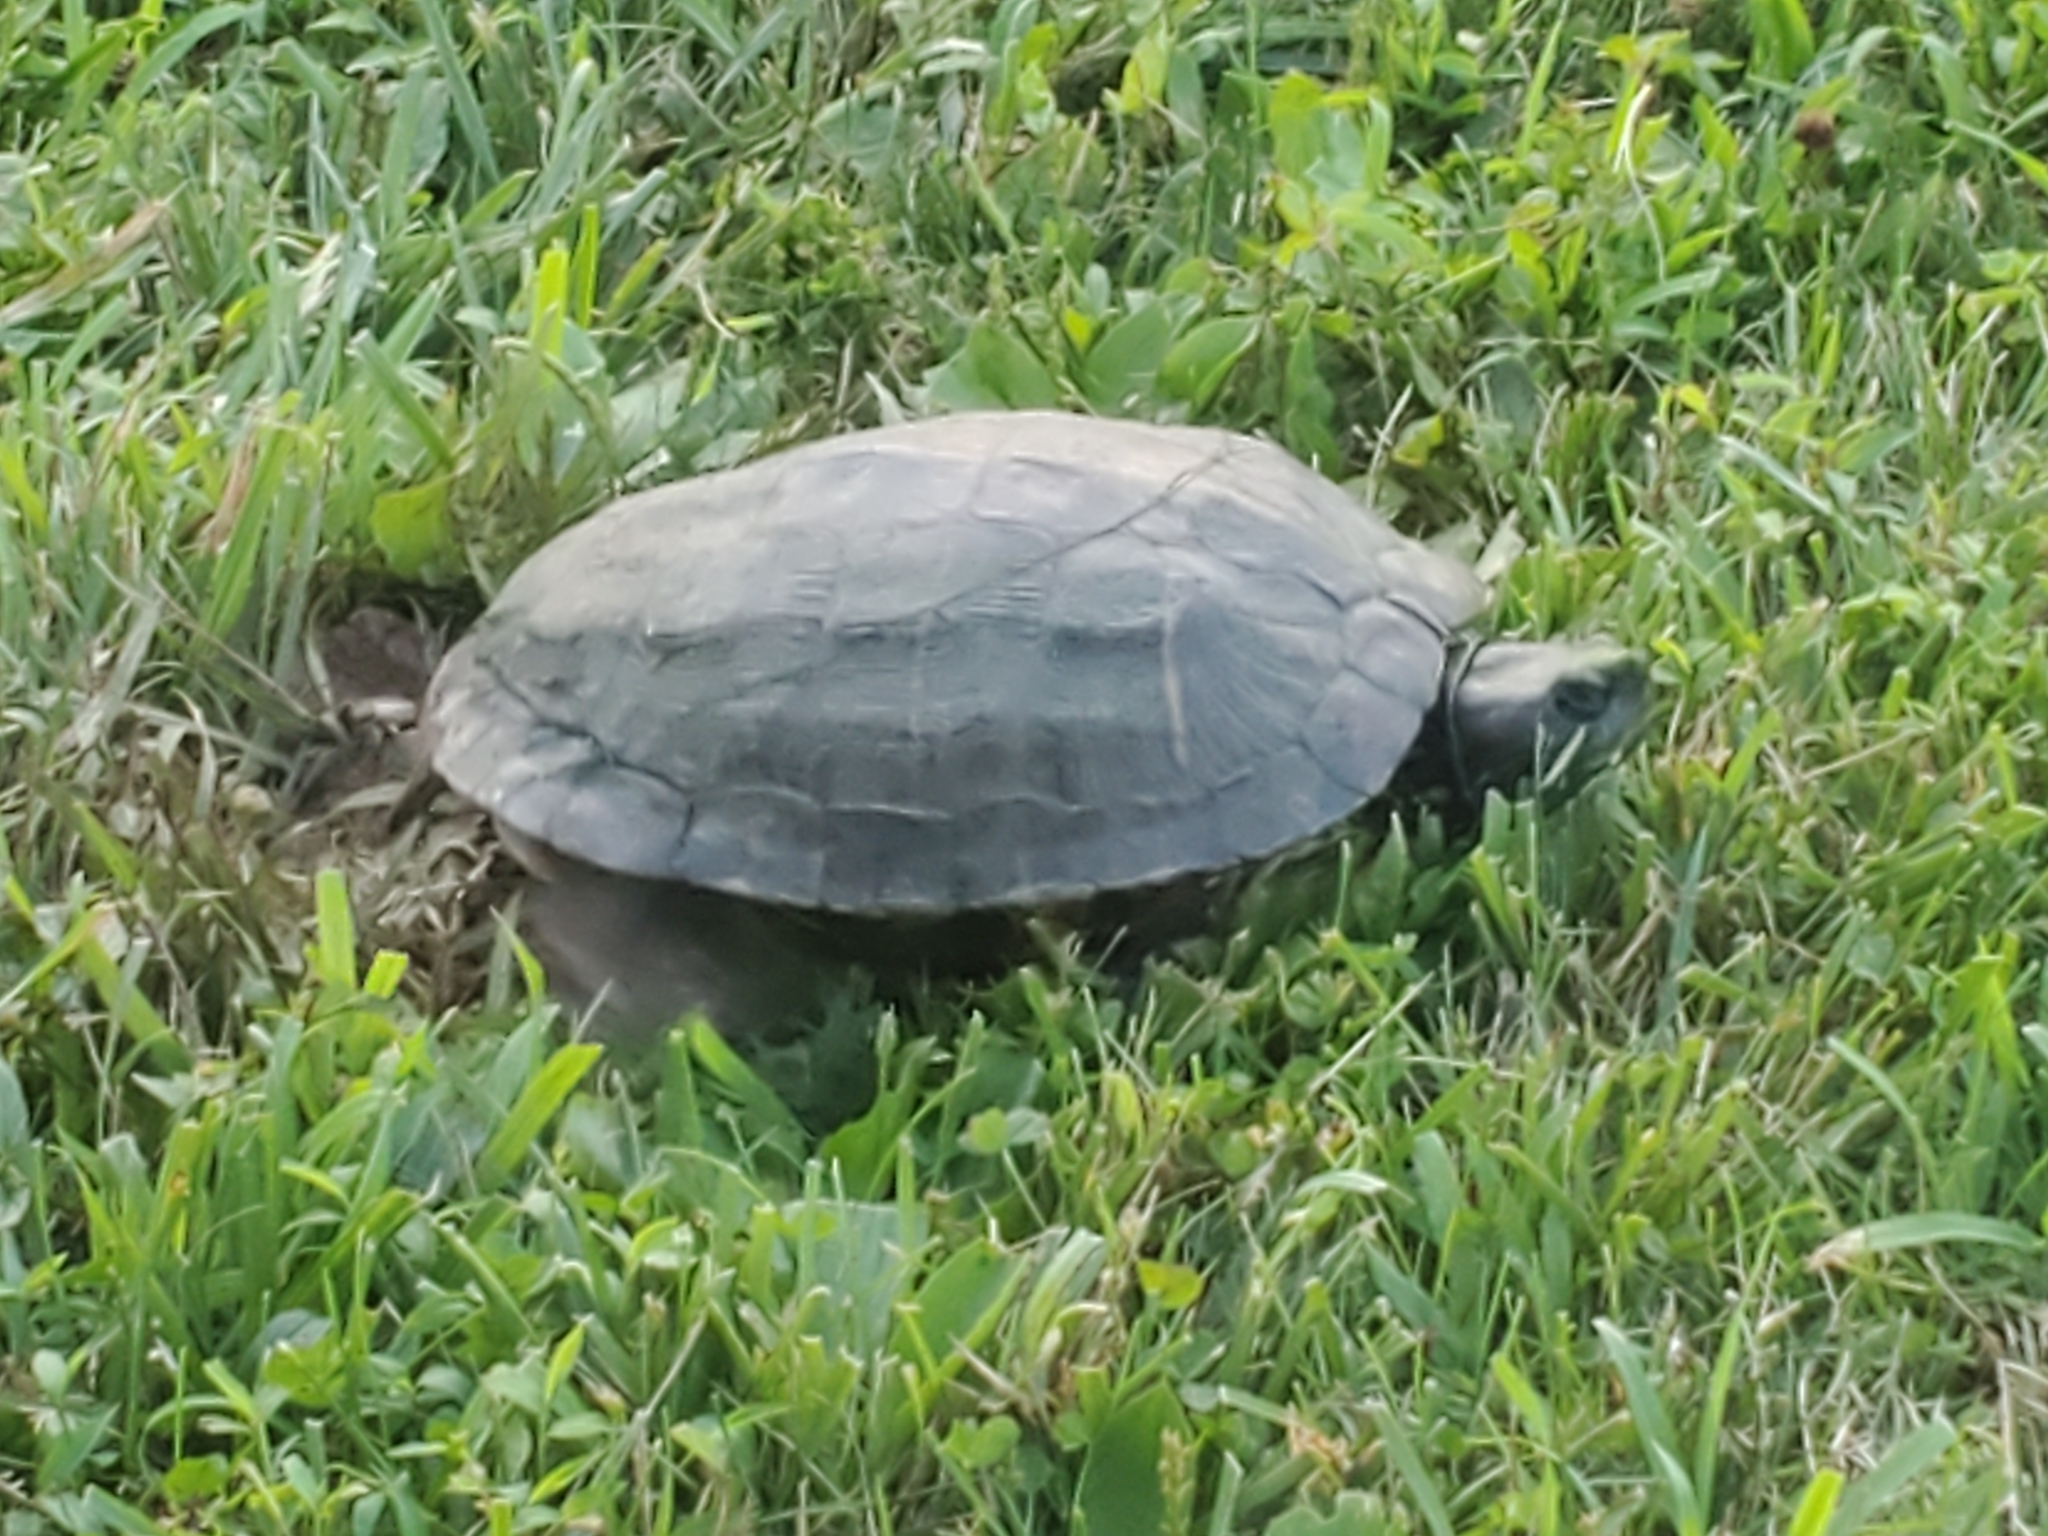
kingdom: Animalia
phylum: Chordata
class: Testudines
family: Emydidae
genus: Trachemys
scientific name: Trachemys scripta
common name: Slider
